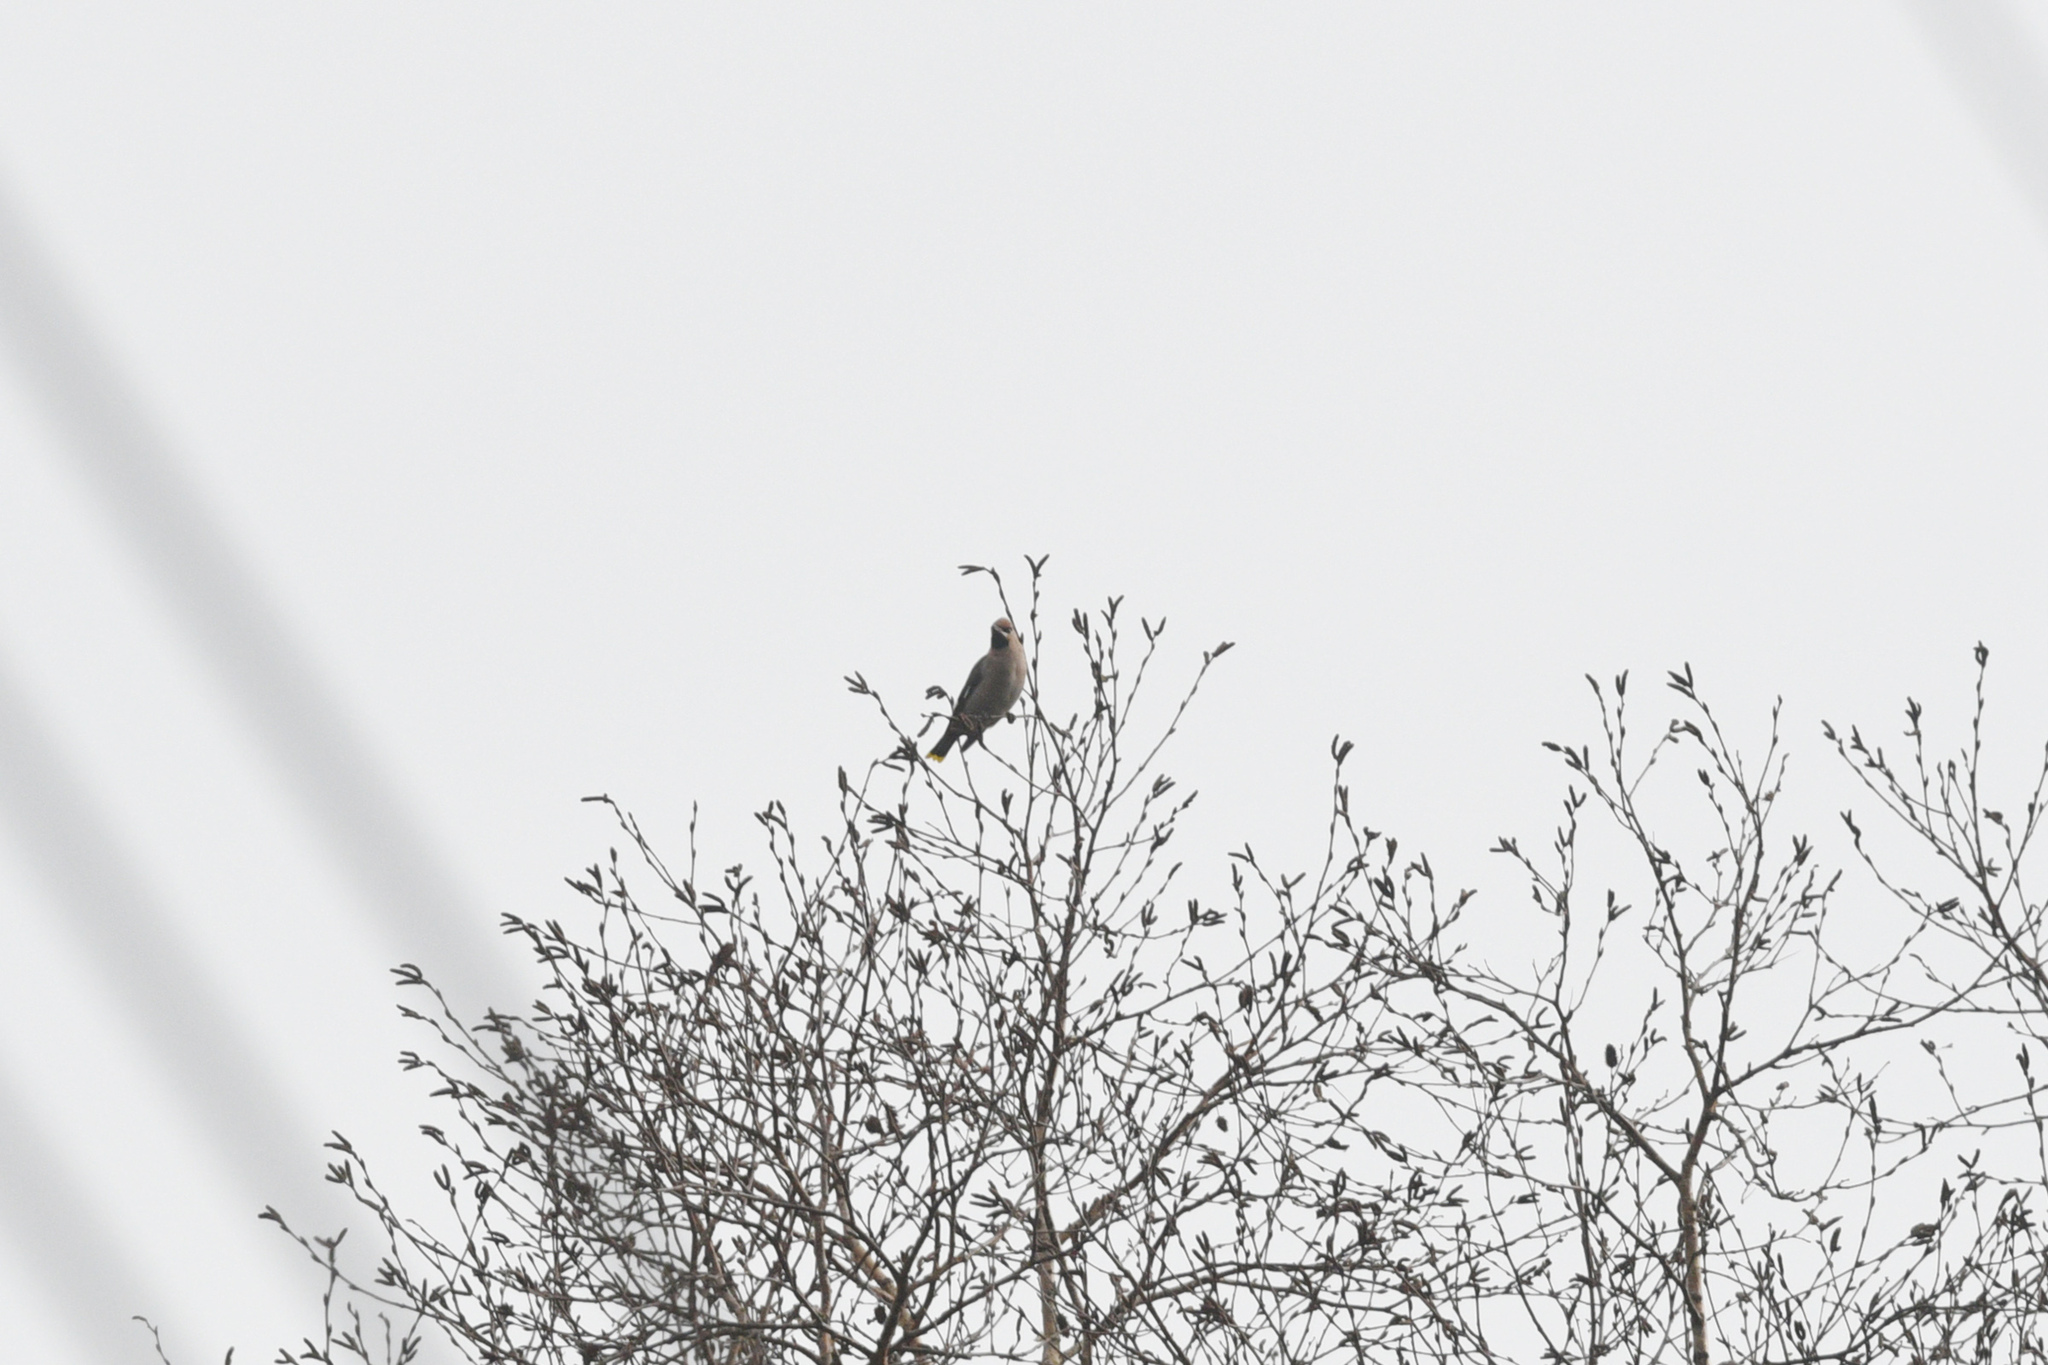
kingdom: Animalia
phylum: Chordata
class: Aves
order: Passeriformes
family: Bombycillidae
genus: Bombycilla
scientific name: Bombycilla garrulus
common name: Bohemian waxwing
